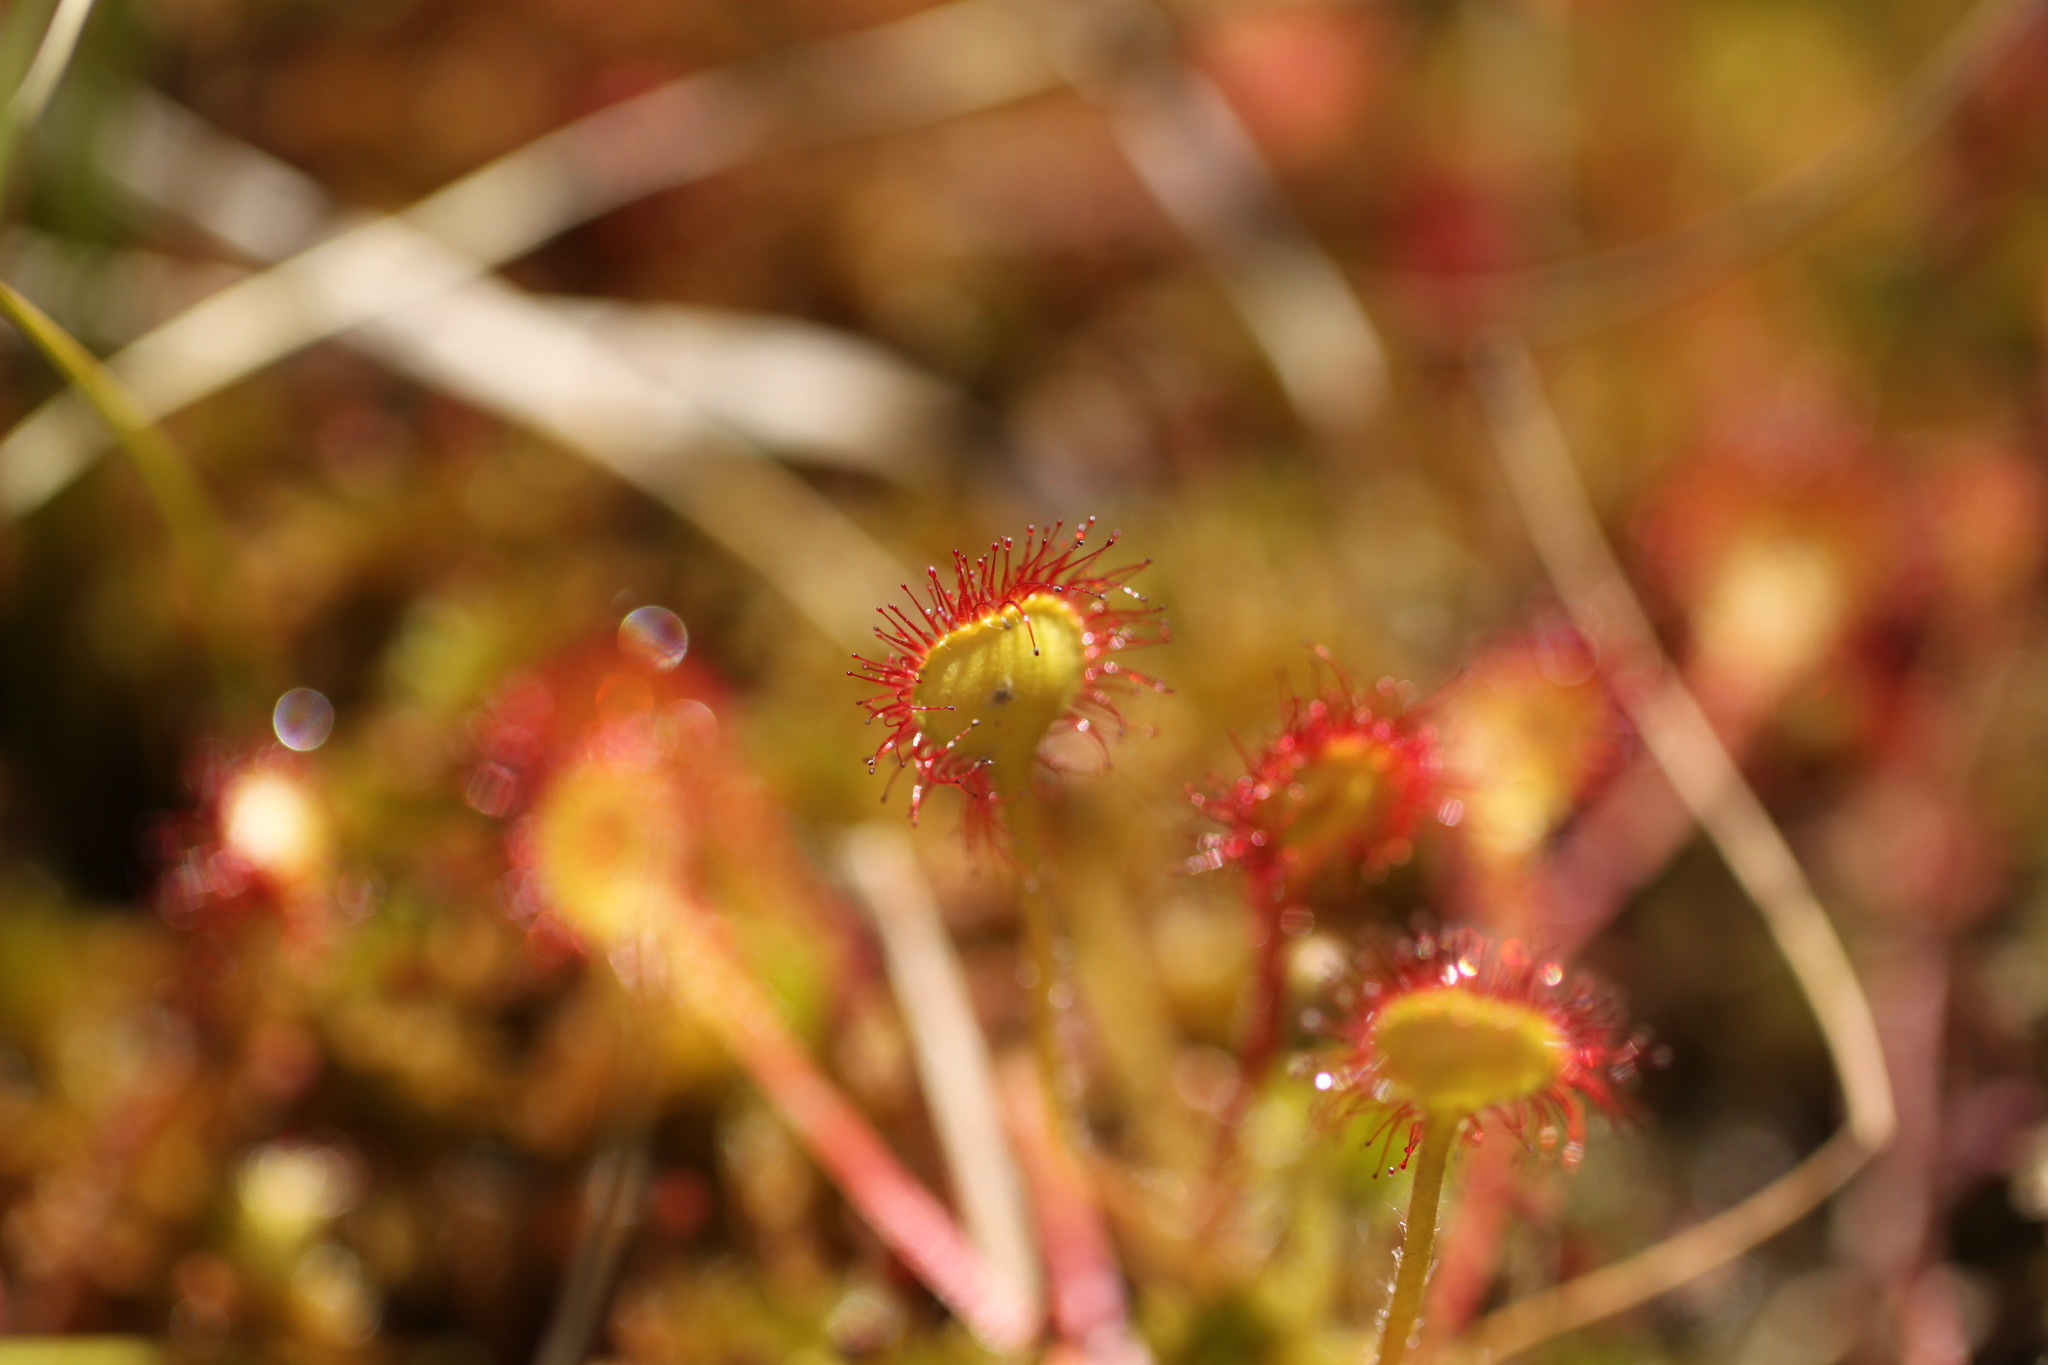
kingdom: Plantae
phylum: Tracheophyta
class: Magnoliopsida
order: Caryophyllales
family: Droseraceae
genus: Drosera
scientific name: Drosera rotundifolia
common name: Round-leaved sundew
